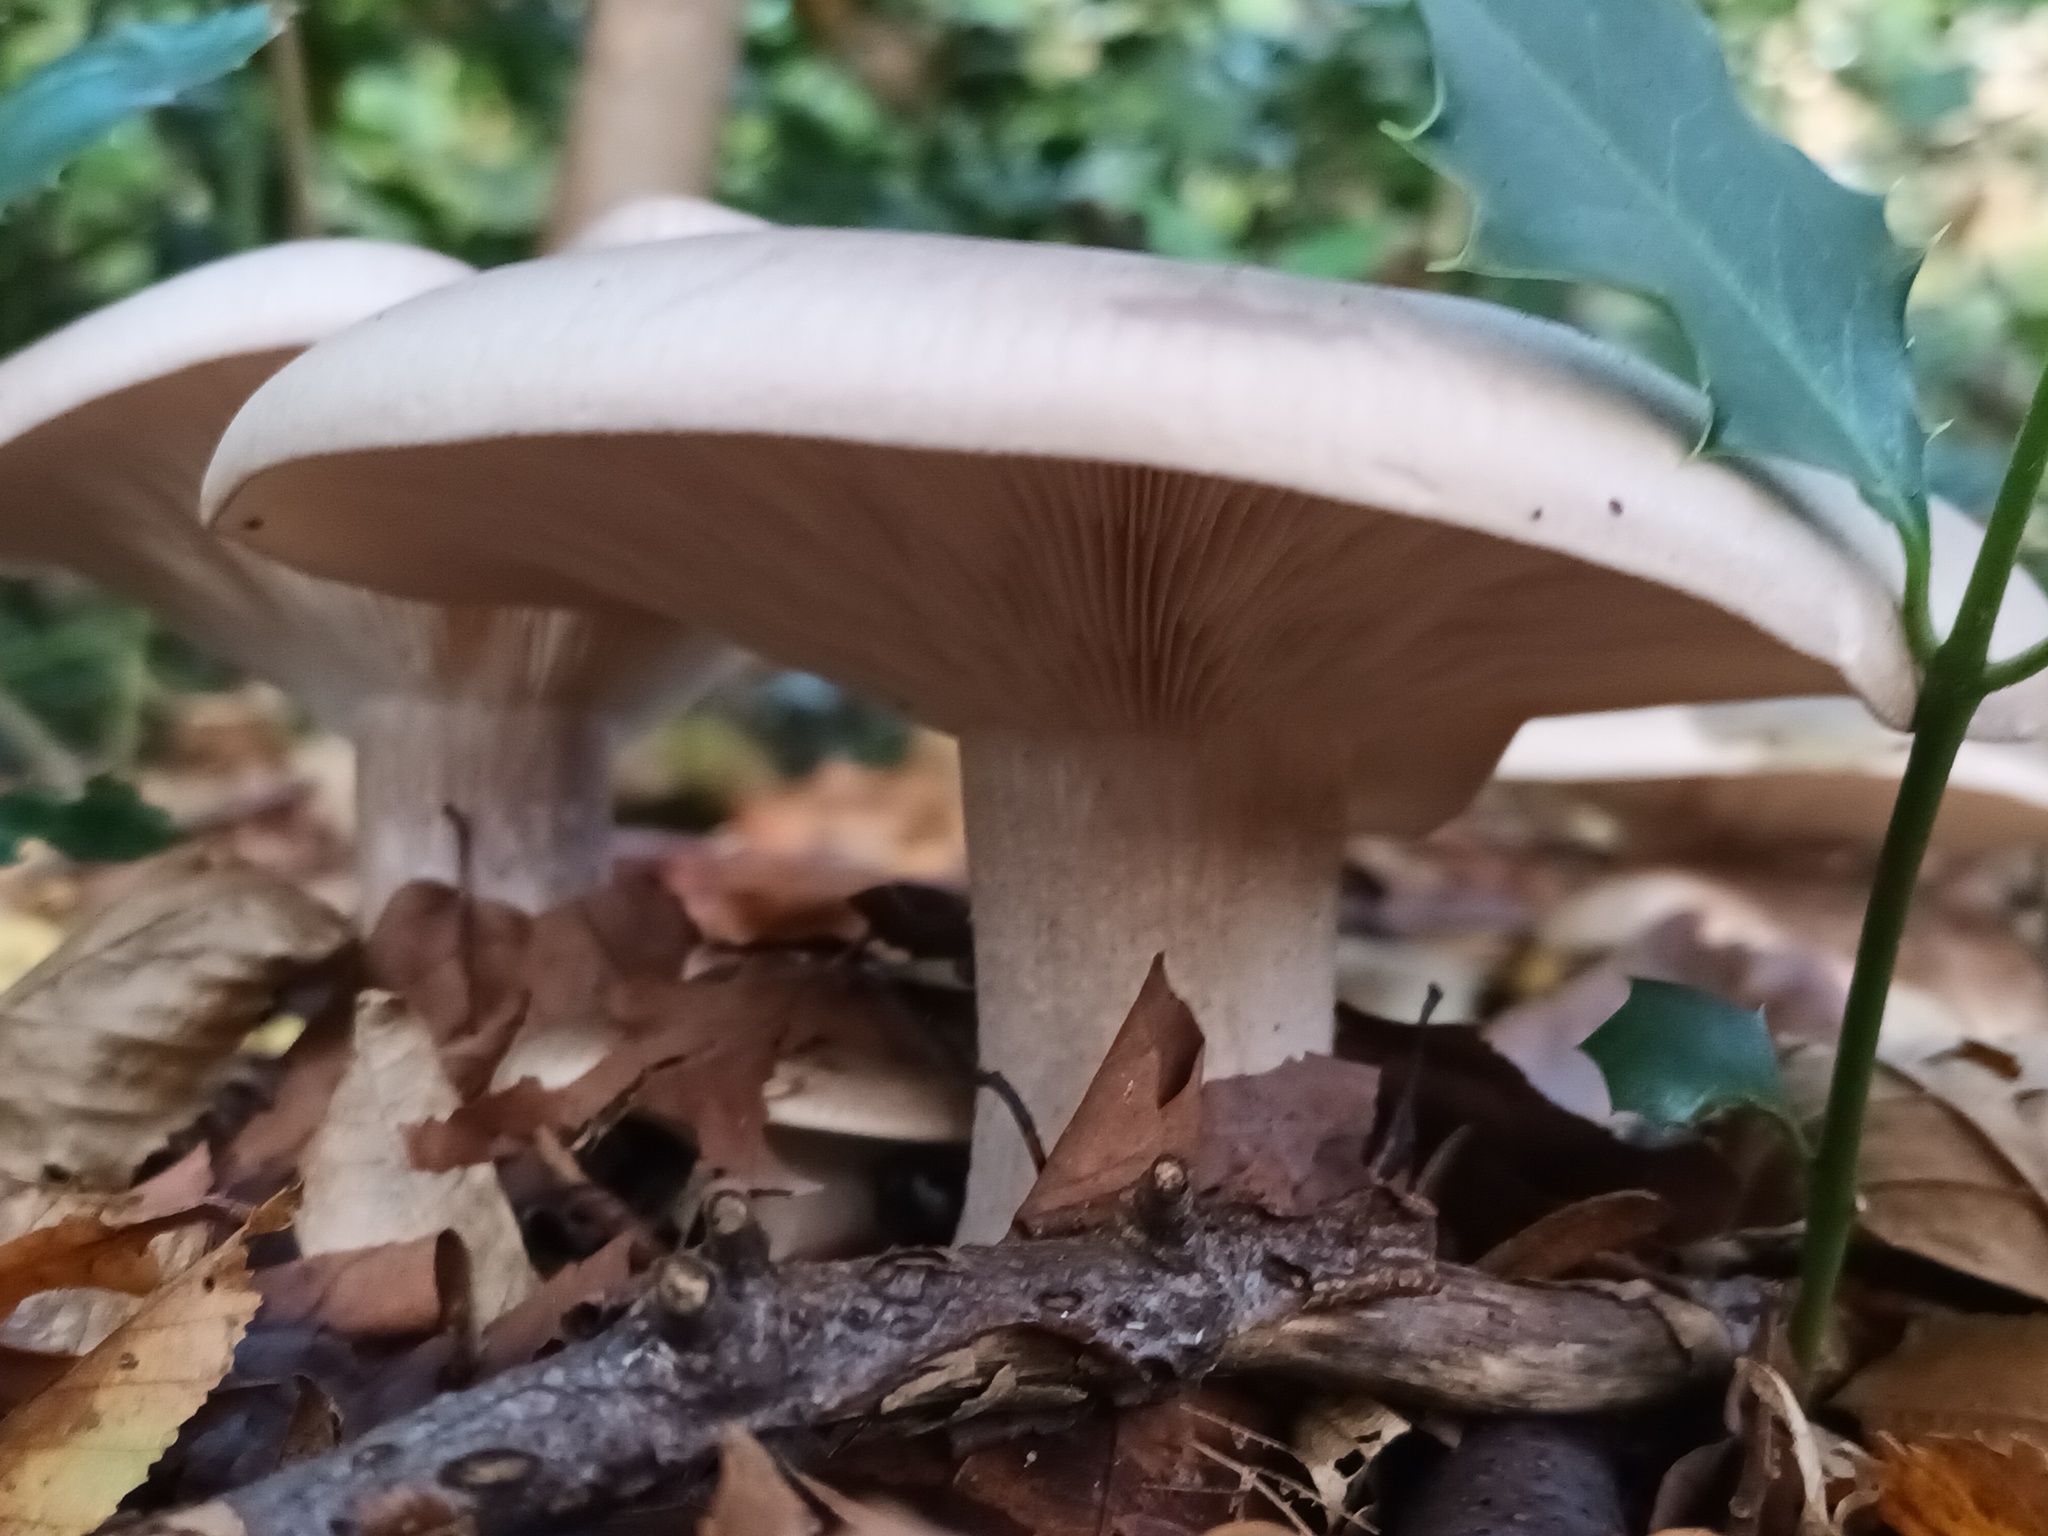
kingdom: Fungi
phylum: Basidiomycota
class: Agaricomycetes
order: Agaricales
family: Tricholomataceae
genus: Clitocybe
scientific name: Clitocybe nebularis
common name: Clouded agaric
